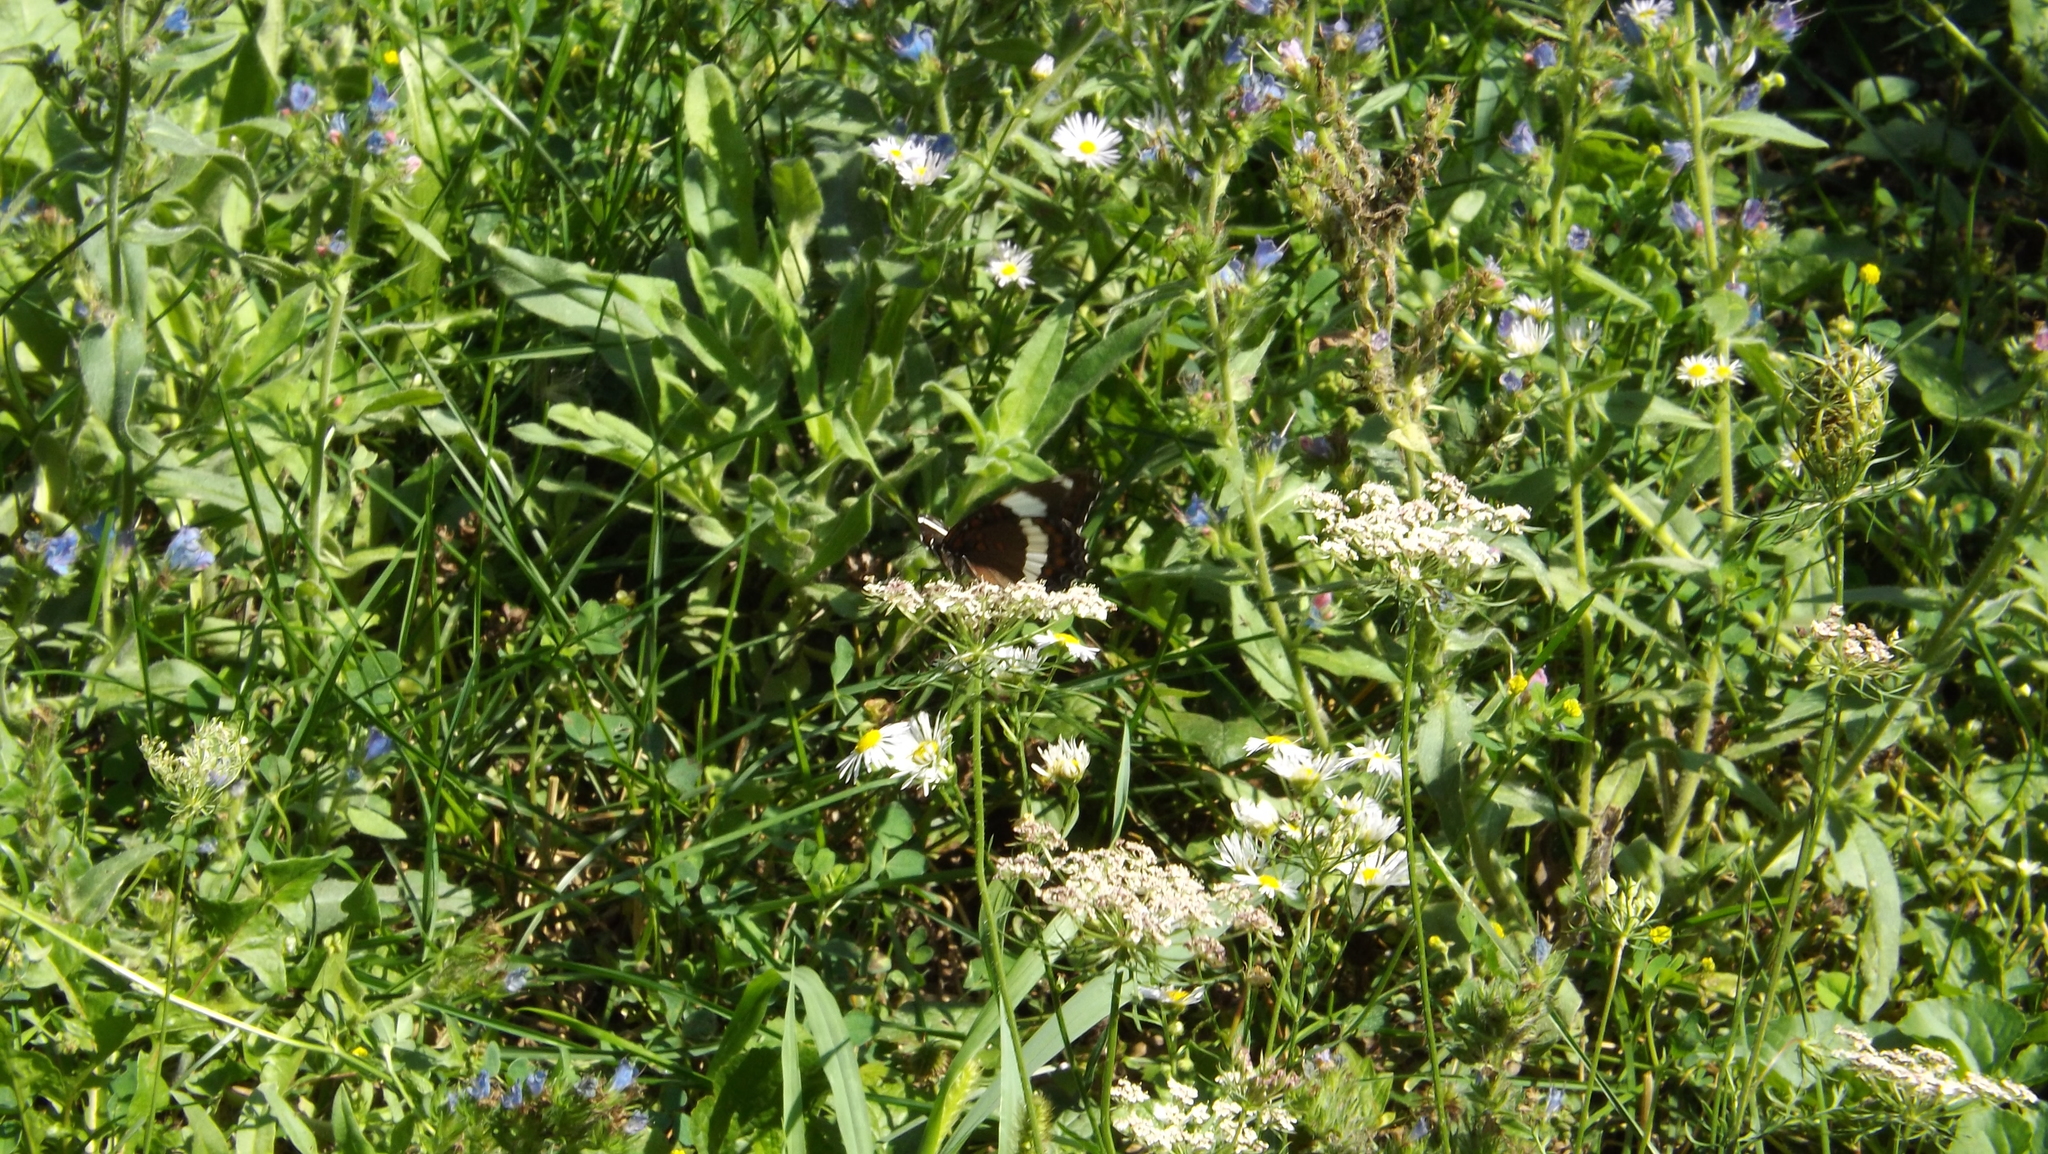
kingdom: Animalia
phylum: Arthropoda
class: Insecta
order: Lepidoptera
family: Nymphalidae
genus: Limenitis
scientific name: Limenitis arthemis
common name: Red-spotted admiral
